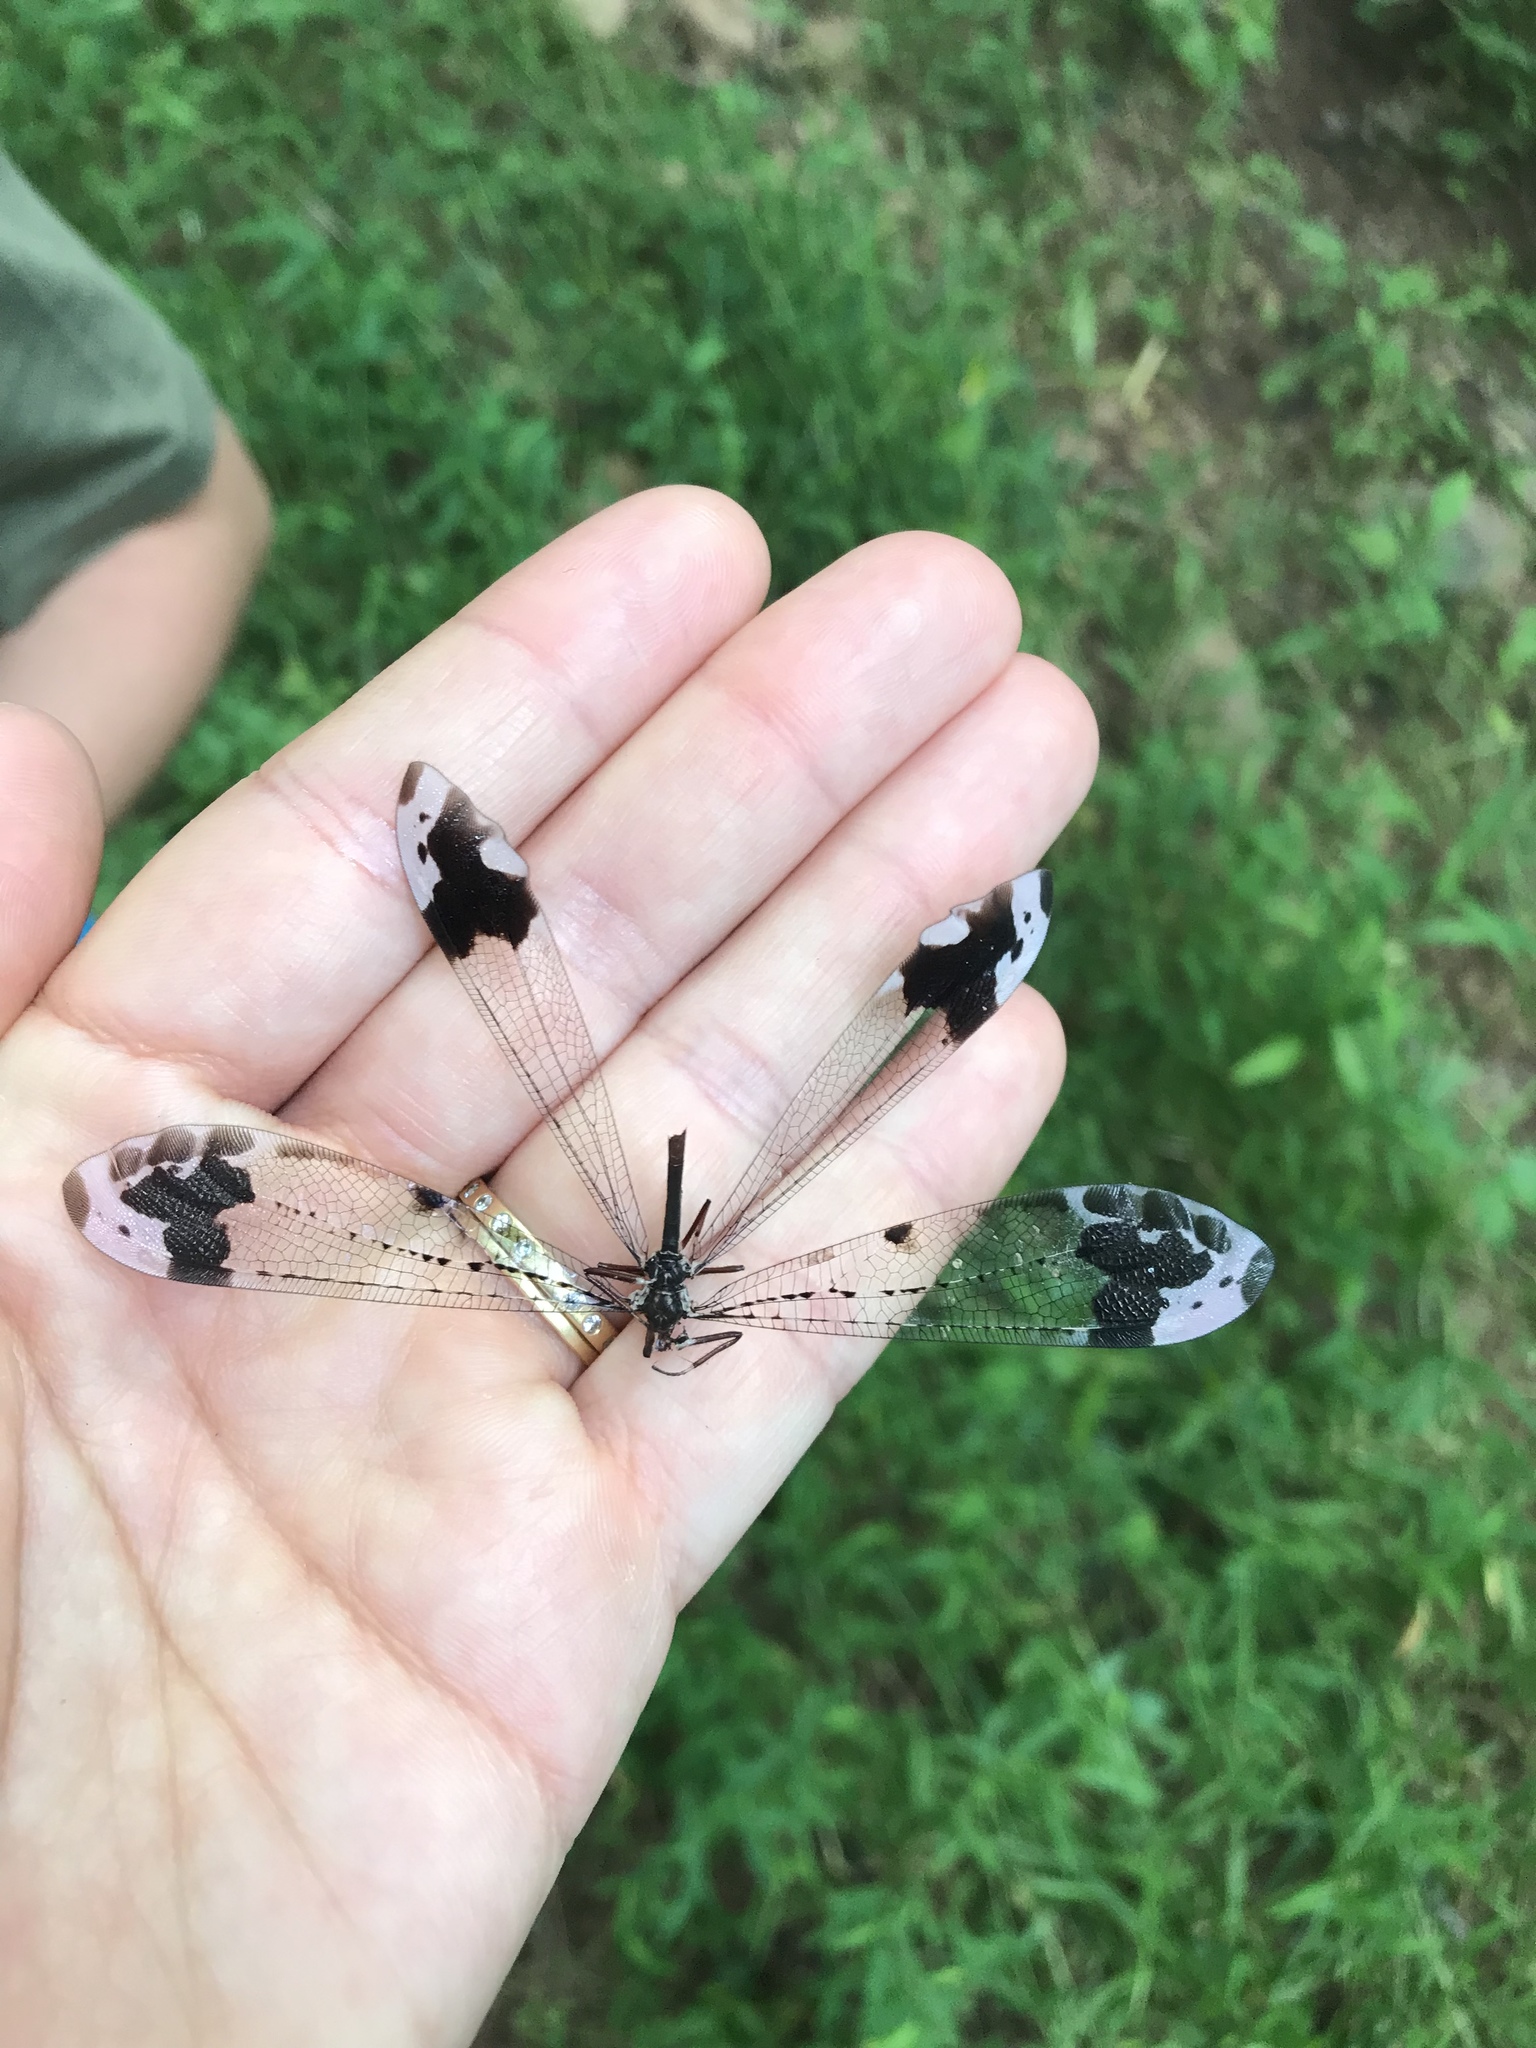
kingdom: Animalia
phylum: Arthropoda
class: Insecta
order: Neuroptera
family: Myrmeleontidae
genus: Glenurus
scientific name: Glenurus gratus
